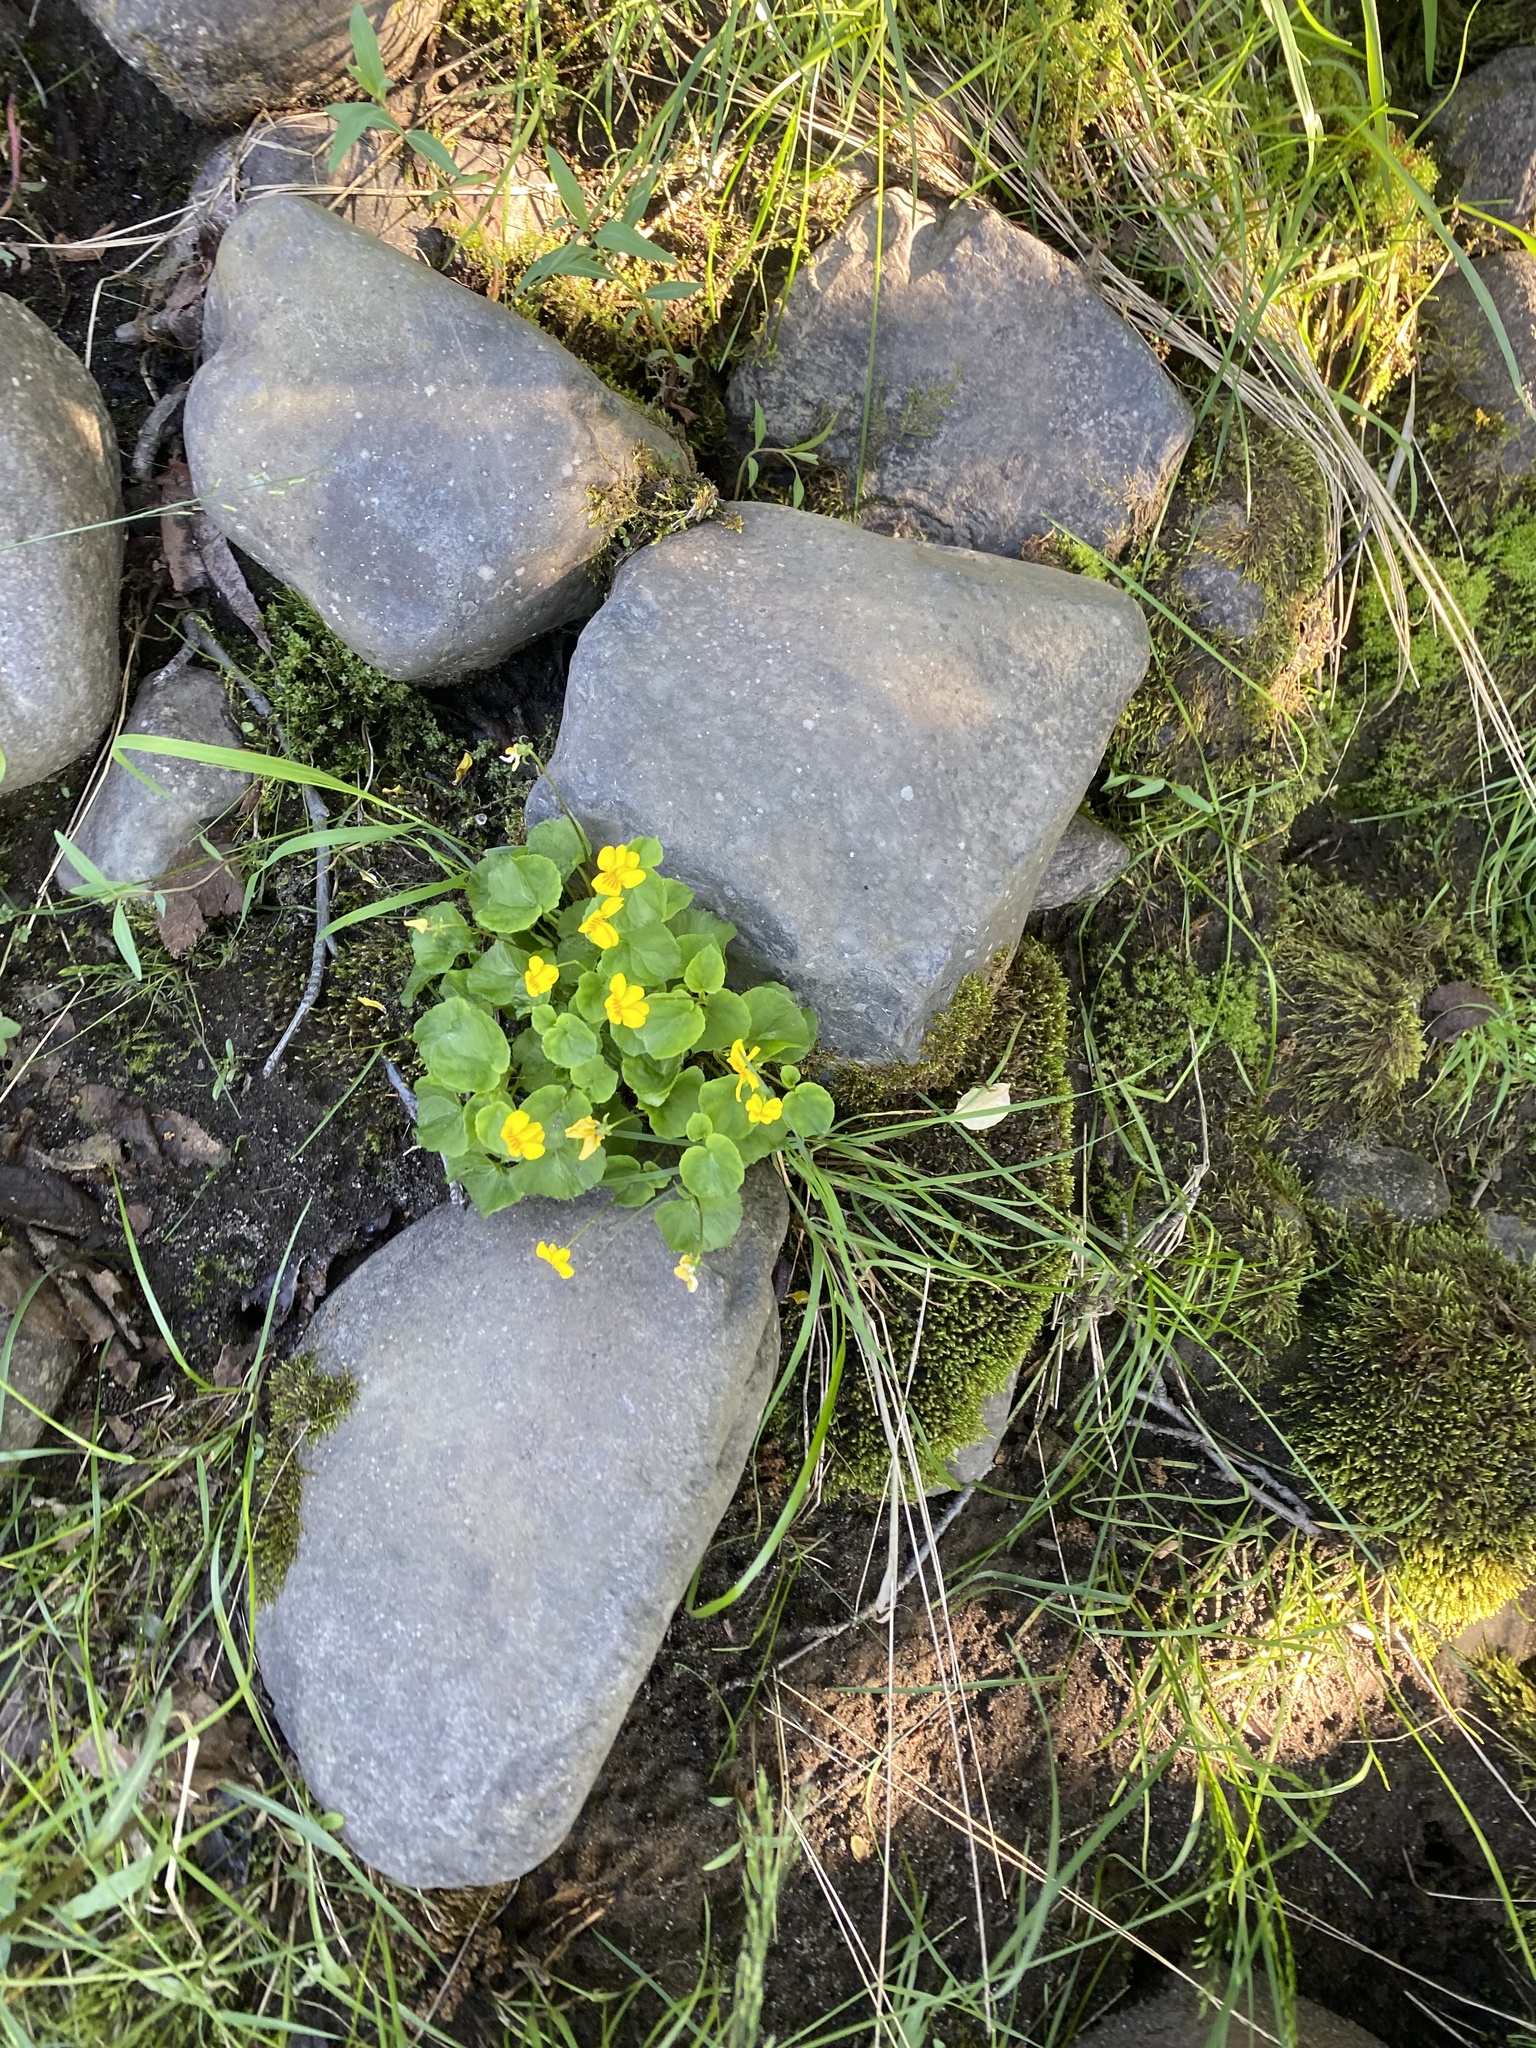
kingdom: Plantae
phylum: Tracheophyta
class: Magnoliopsida
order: Malpighiales
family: Violaceae
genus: Viola
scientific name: Viola biflora
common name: Alpine yellow violet
